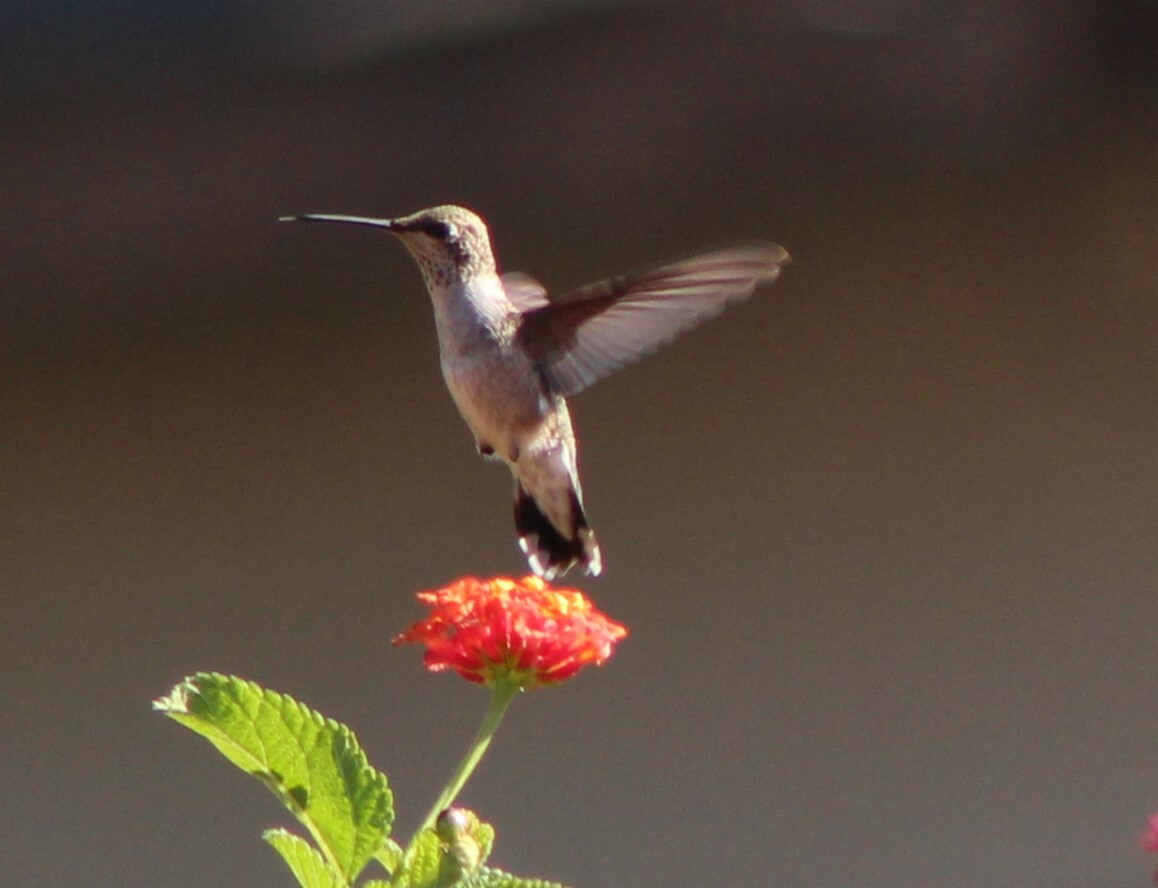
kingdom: Animalia
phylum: Chordata
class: Aves
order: Apodiformes
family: Trochilidae
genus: Archilochus
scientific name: Archilochus alexandri
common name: Black-chinned hummingbird
